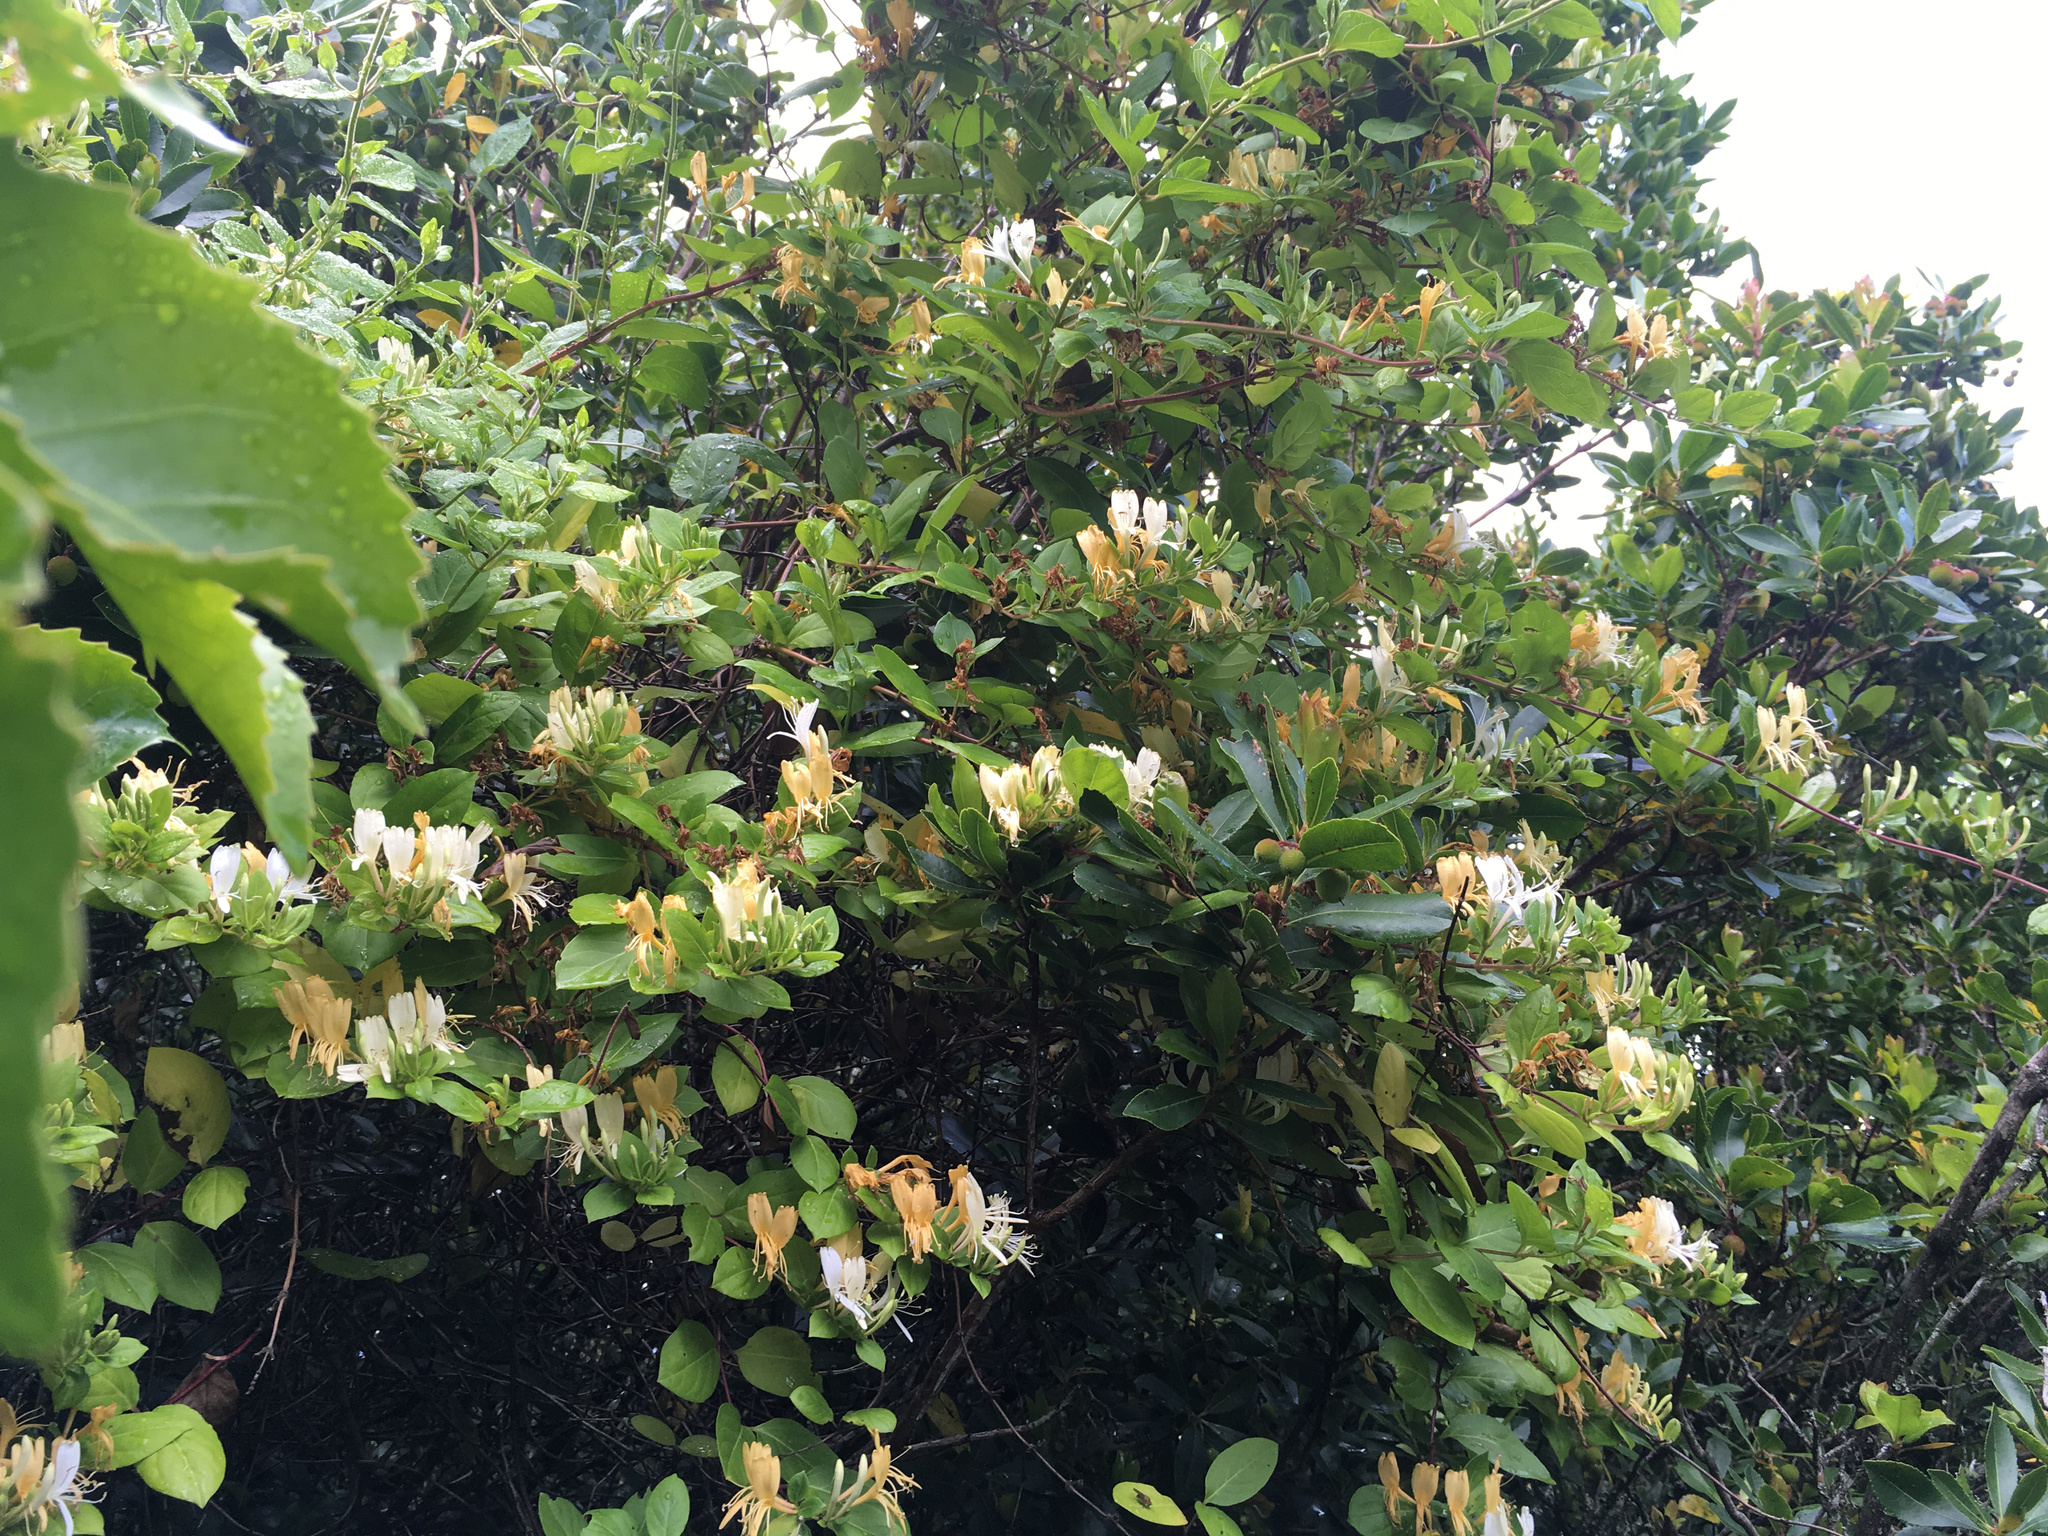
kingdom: Plantae
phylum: Tracheophyta
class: Magnoliopsida
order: Dipsacales
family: Caprifoliaceae
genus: Lonicera
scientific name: Lonicera japonica
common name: Japanese honeysuckle
